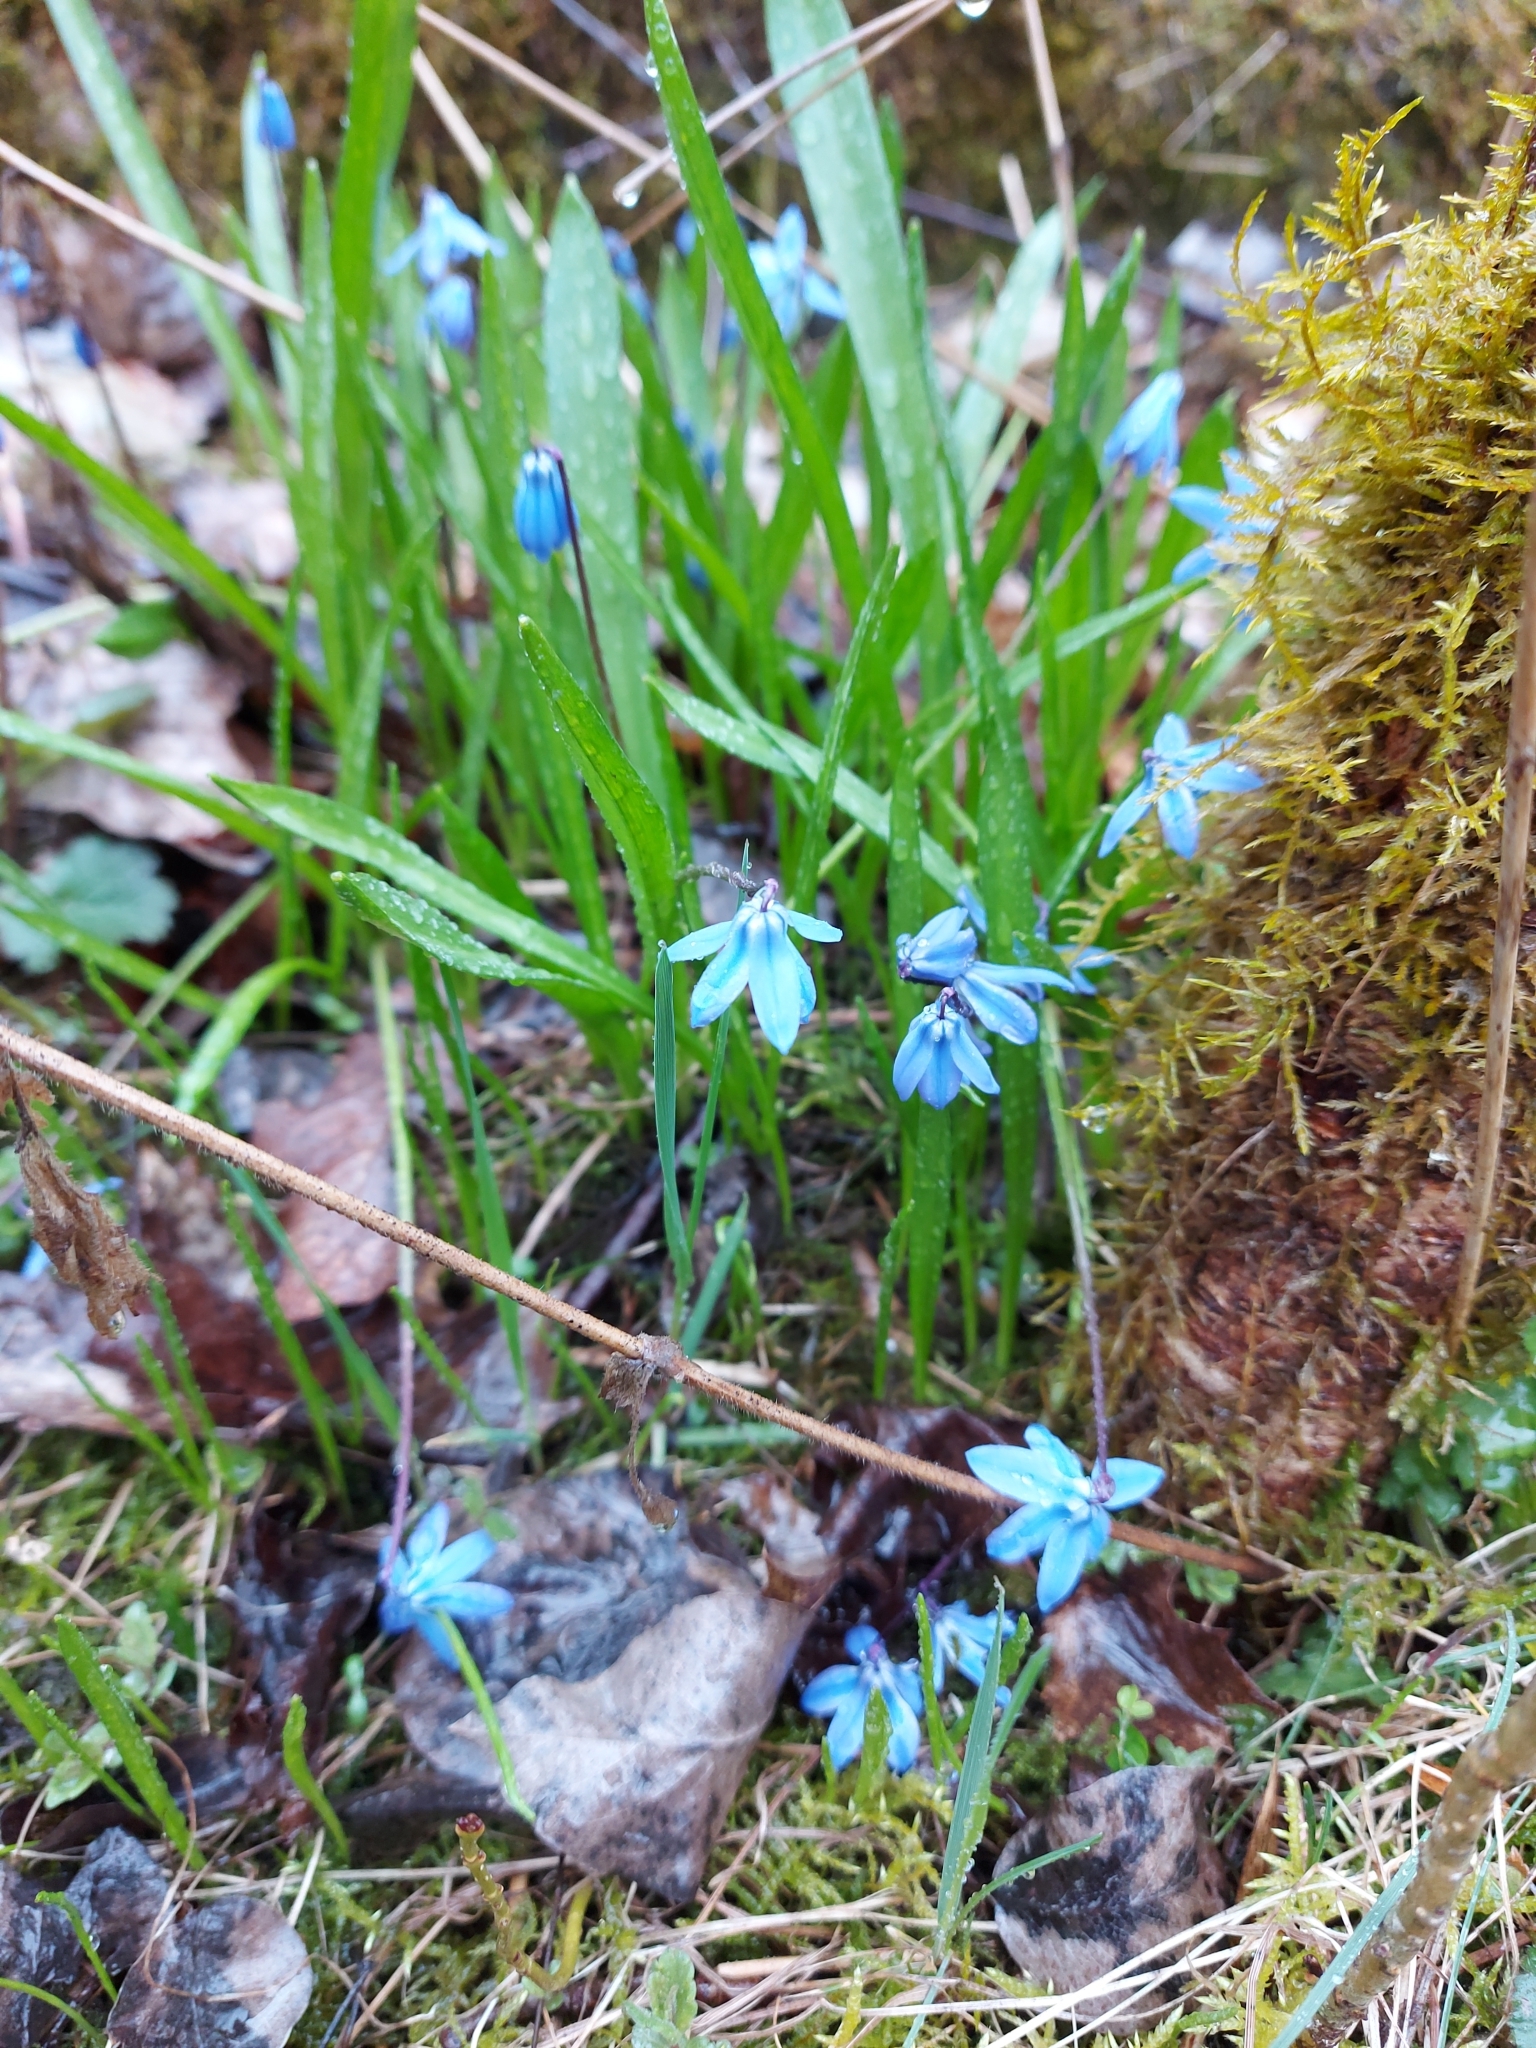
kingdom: Plantae
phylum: Tracheophyta
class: Liliopsida
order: Asparagales
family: Asparagaceae
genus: Scilla
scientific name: Scilla siberica
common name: Siberian squill
